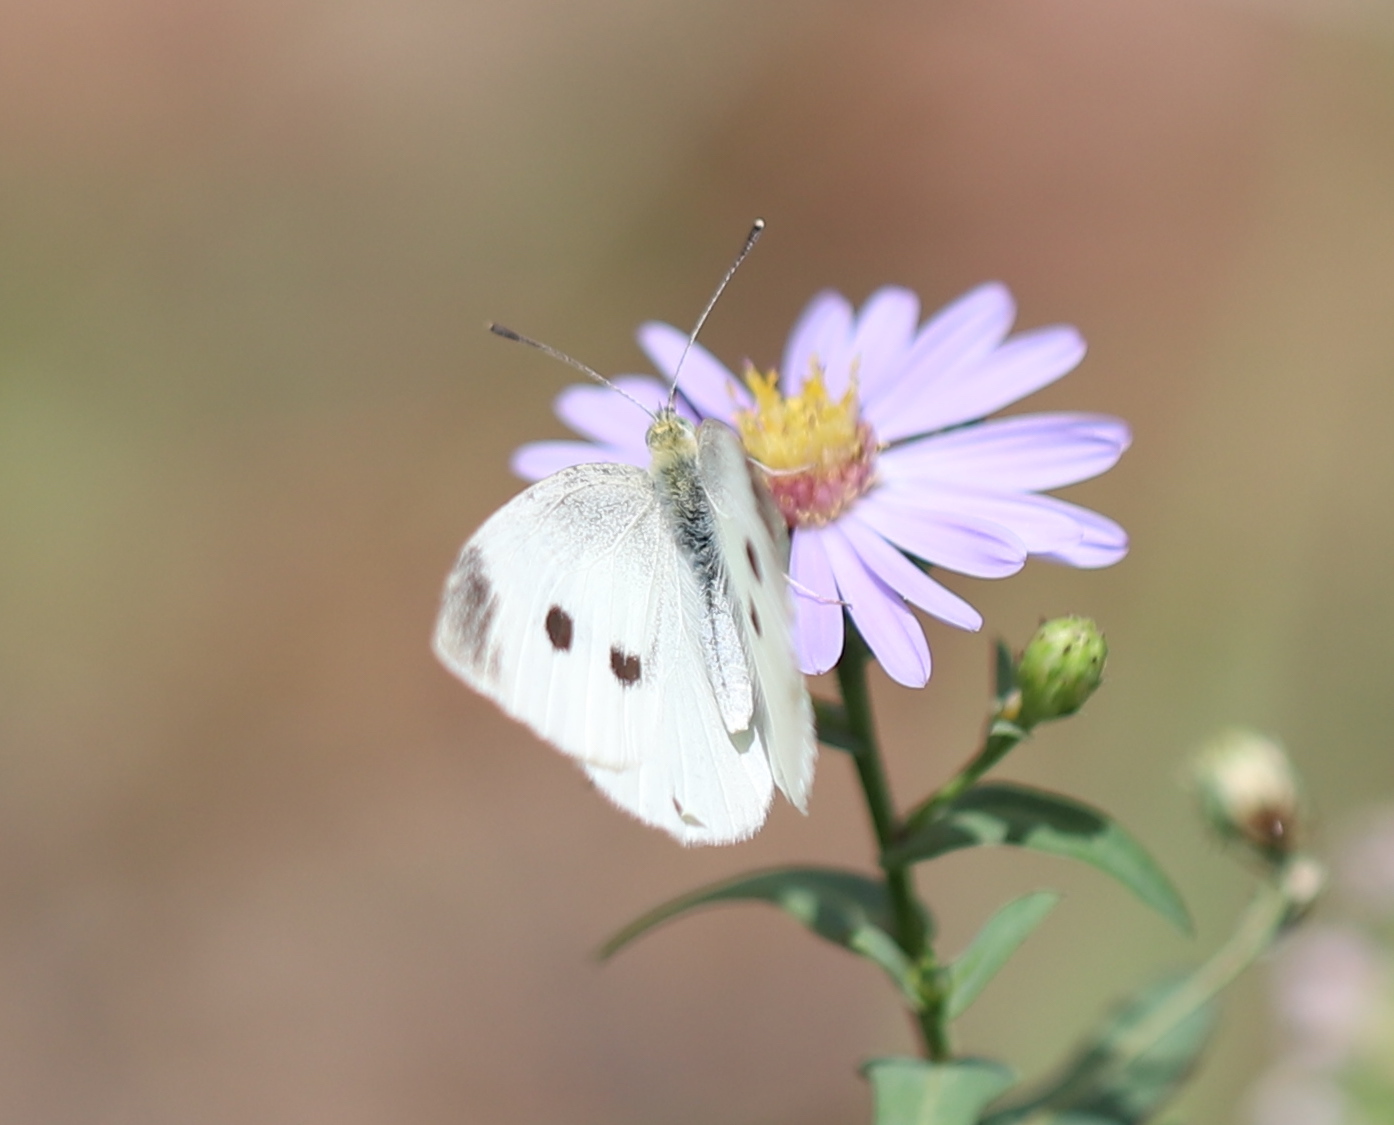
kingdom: Animalia
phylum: Arthropoda
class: Insecta
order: Lepidoptera
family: Pieridae
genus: Pieris
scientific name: Pieris rapae
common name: Small white
